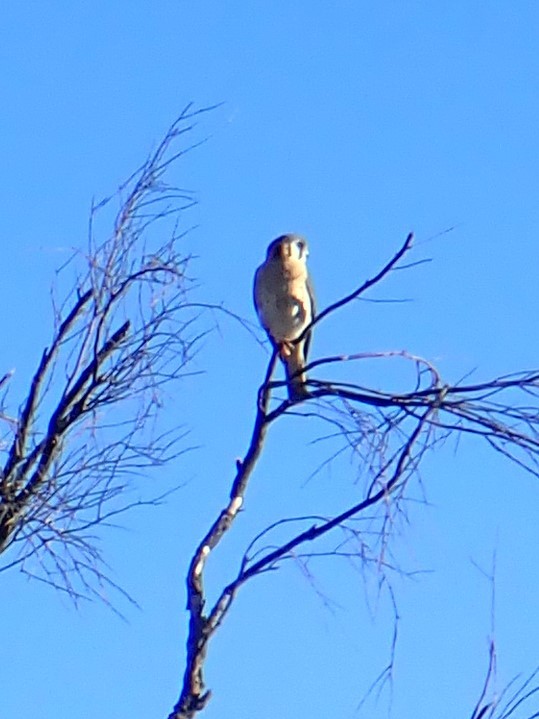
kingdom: Animalia
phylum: Chordata
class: Aves
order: Falconiformes
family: Falconidae
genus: Falco
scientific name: Falco sparverius
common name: American kestrel
